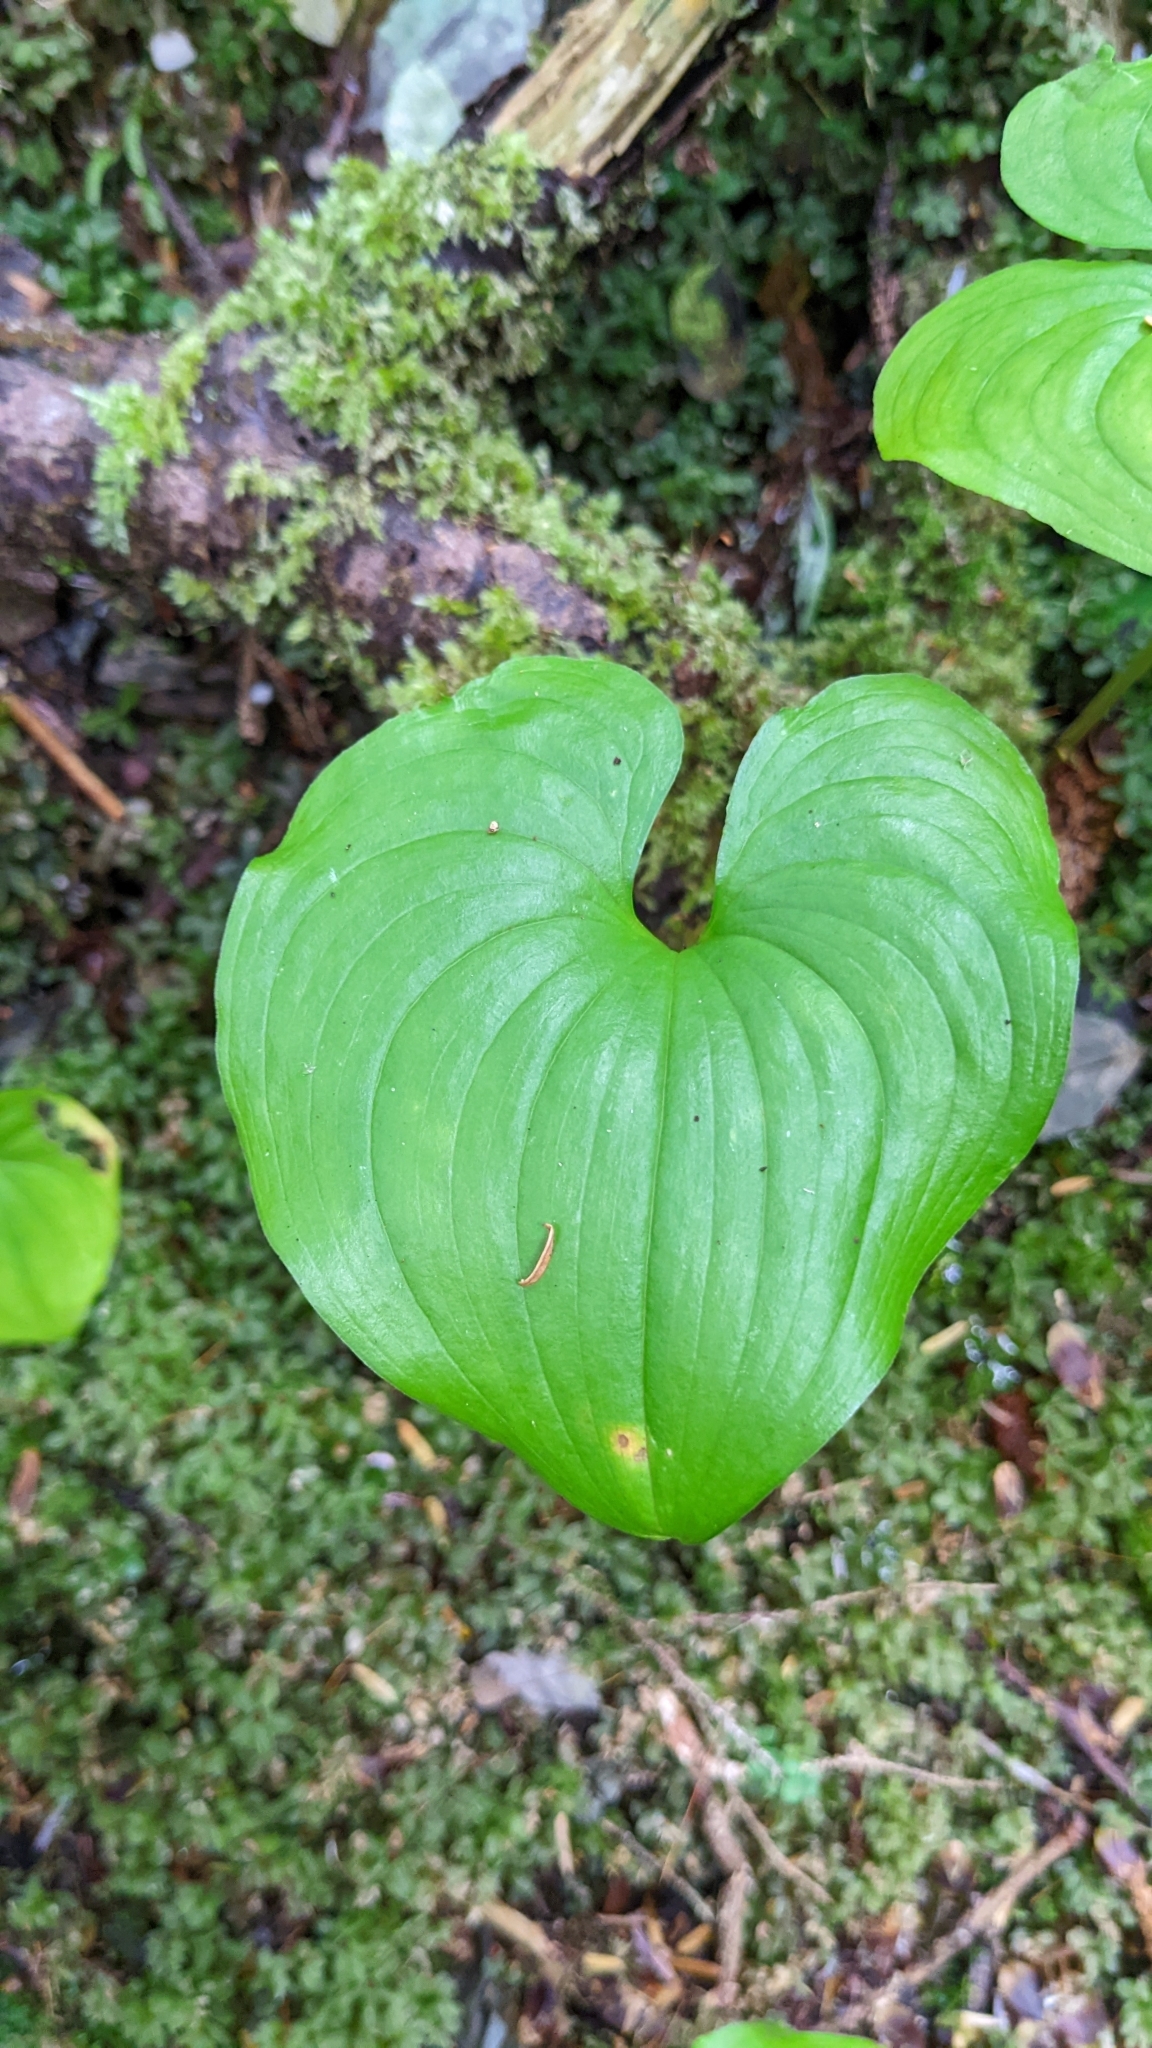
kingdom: Plantae
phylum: Tracheophyta
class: Liliopsida
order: Asparagales
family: Asparagaceae
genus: Maianthemum
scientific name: Maianthemum dilatatum
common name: False lily-of-the-valley
